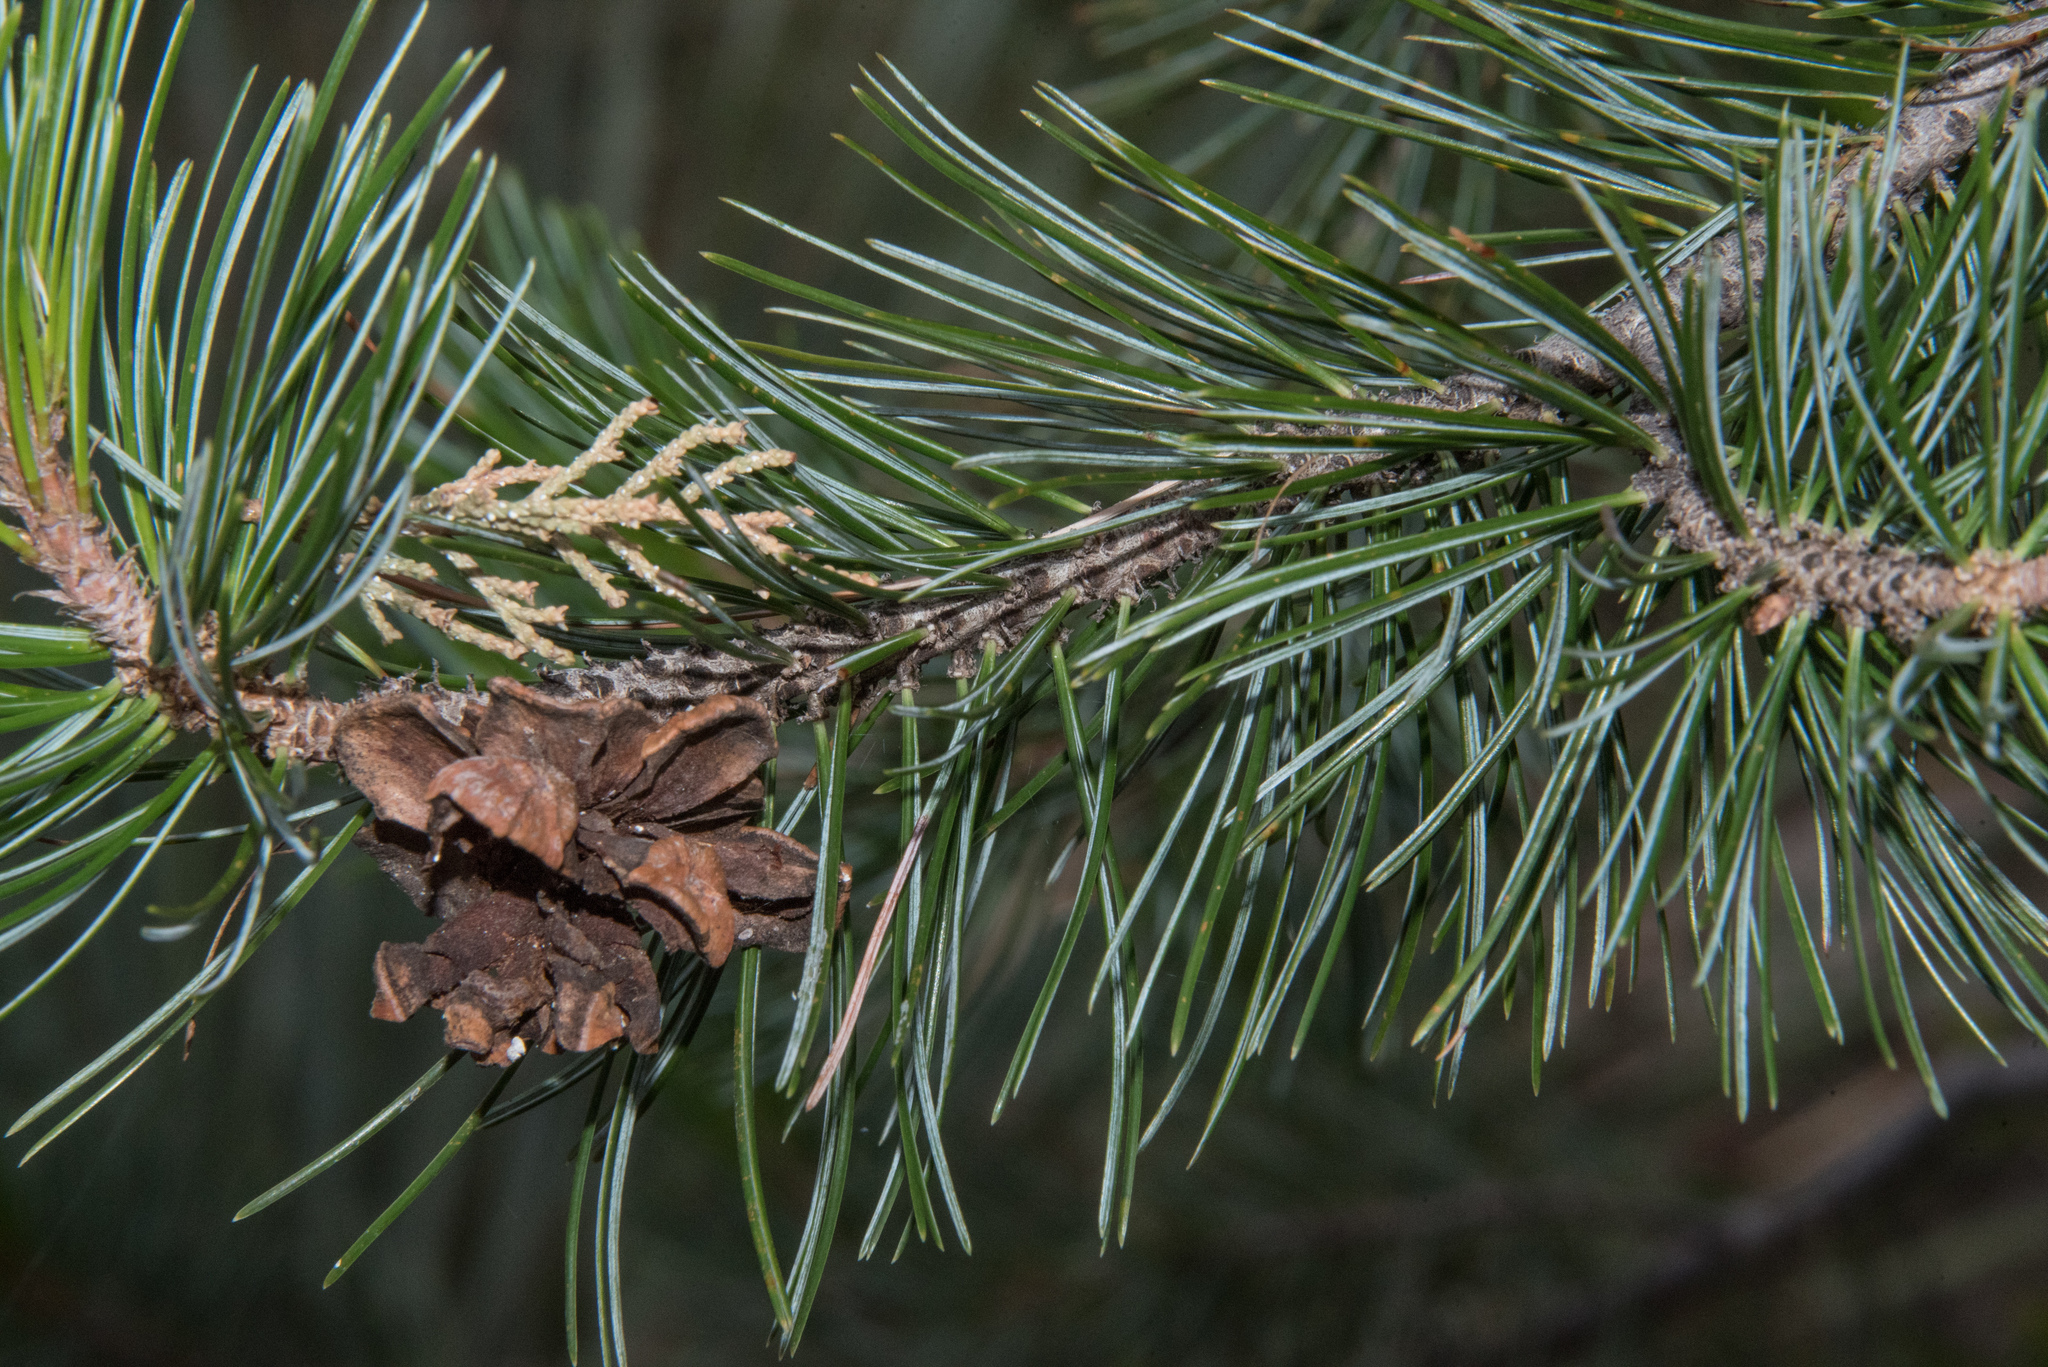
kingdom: Plantae
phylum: Tracheophyta
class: Pinopsida
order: Pinales
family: Pinaceae
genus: Pinus
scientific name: Pinus discolor
